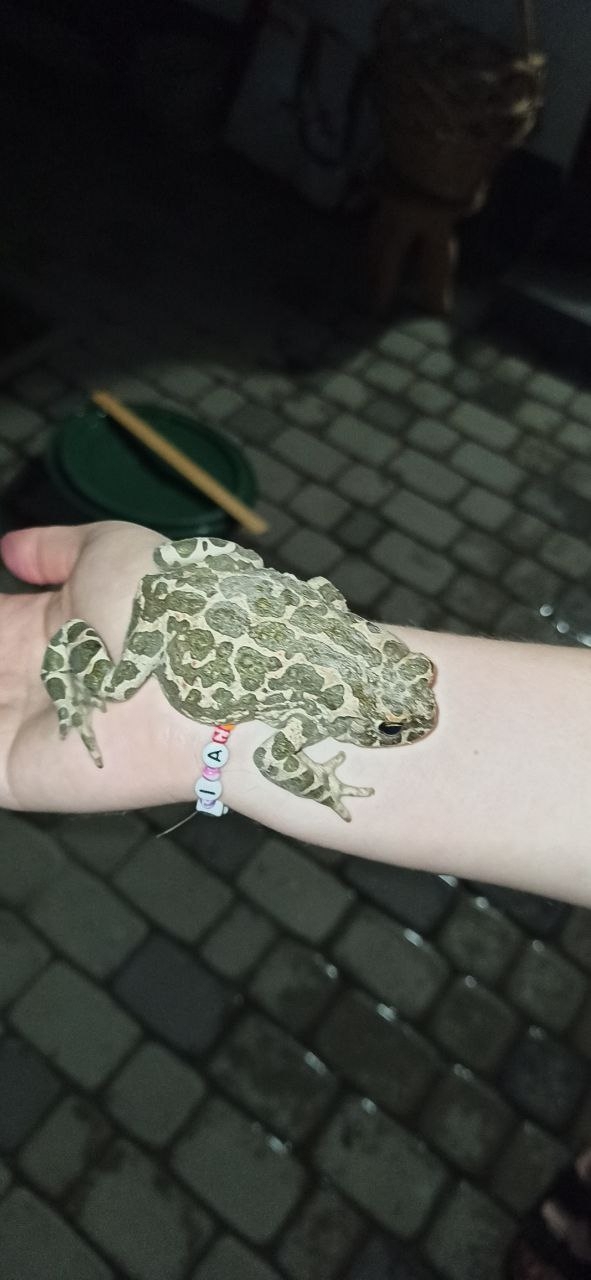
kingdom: Animalia
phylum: Chordata
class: Amphibia
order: Anura
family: Bufonidae
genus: Bufotes
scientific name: Bufotes viridis
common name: European green toad
